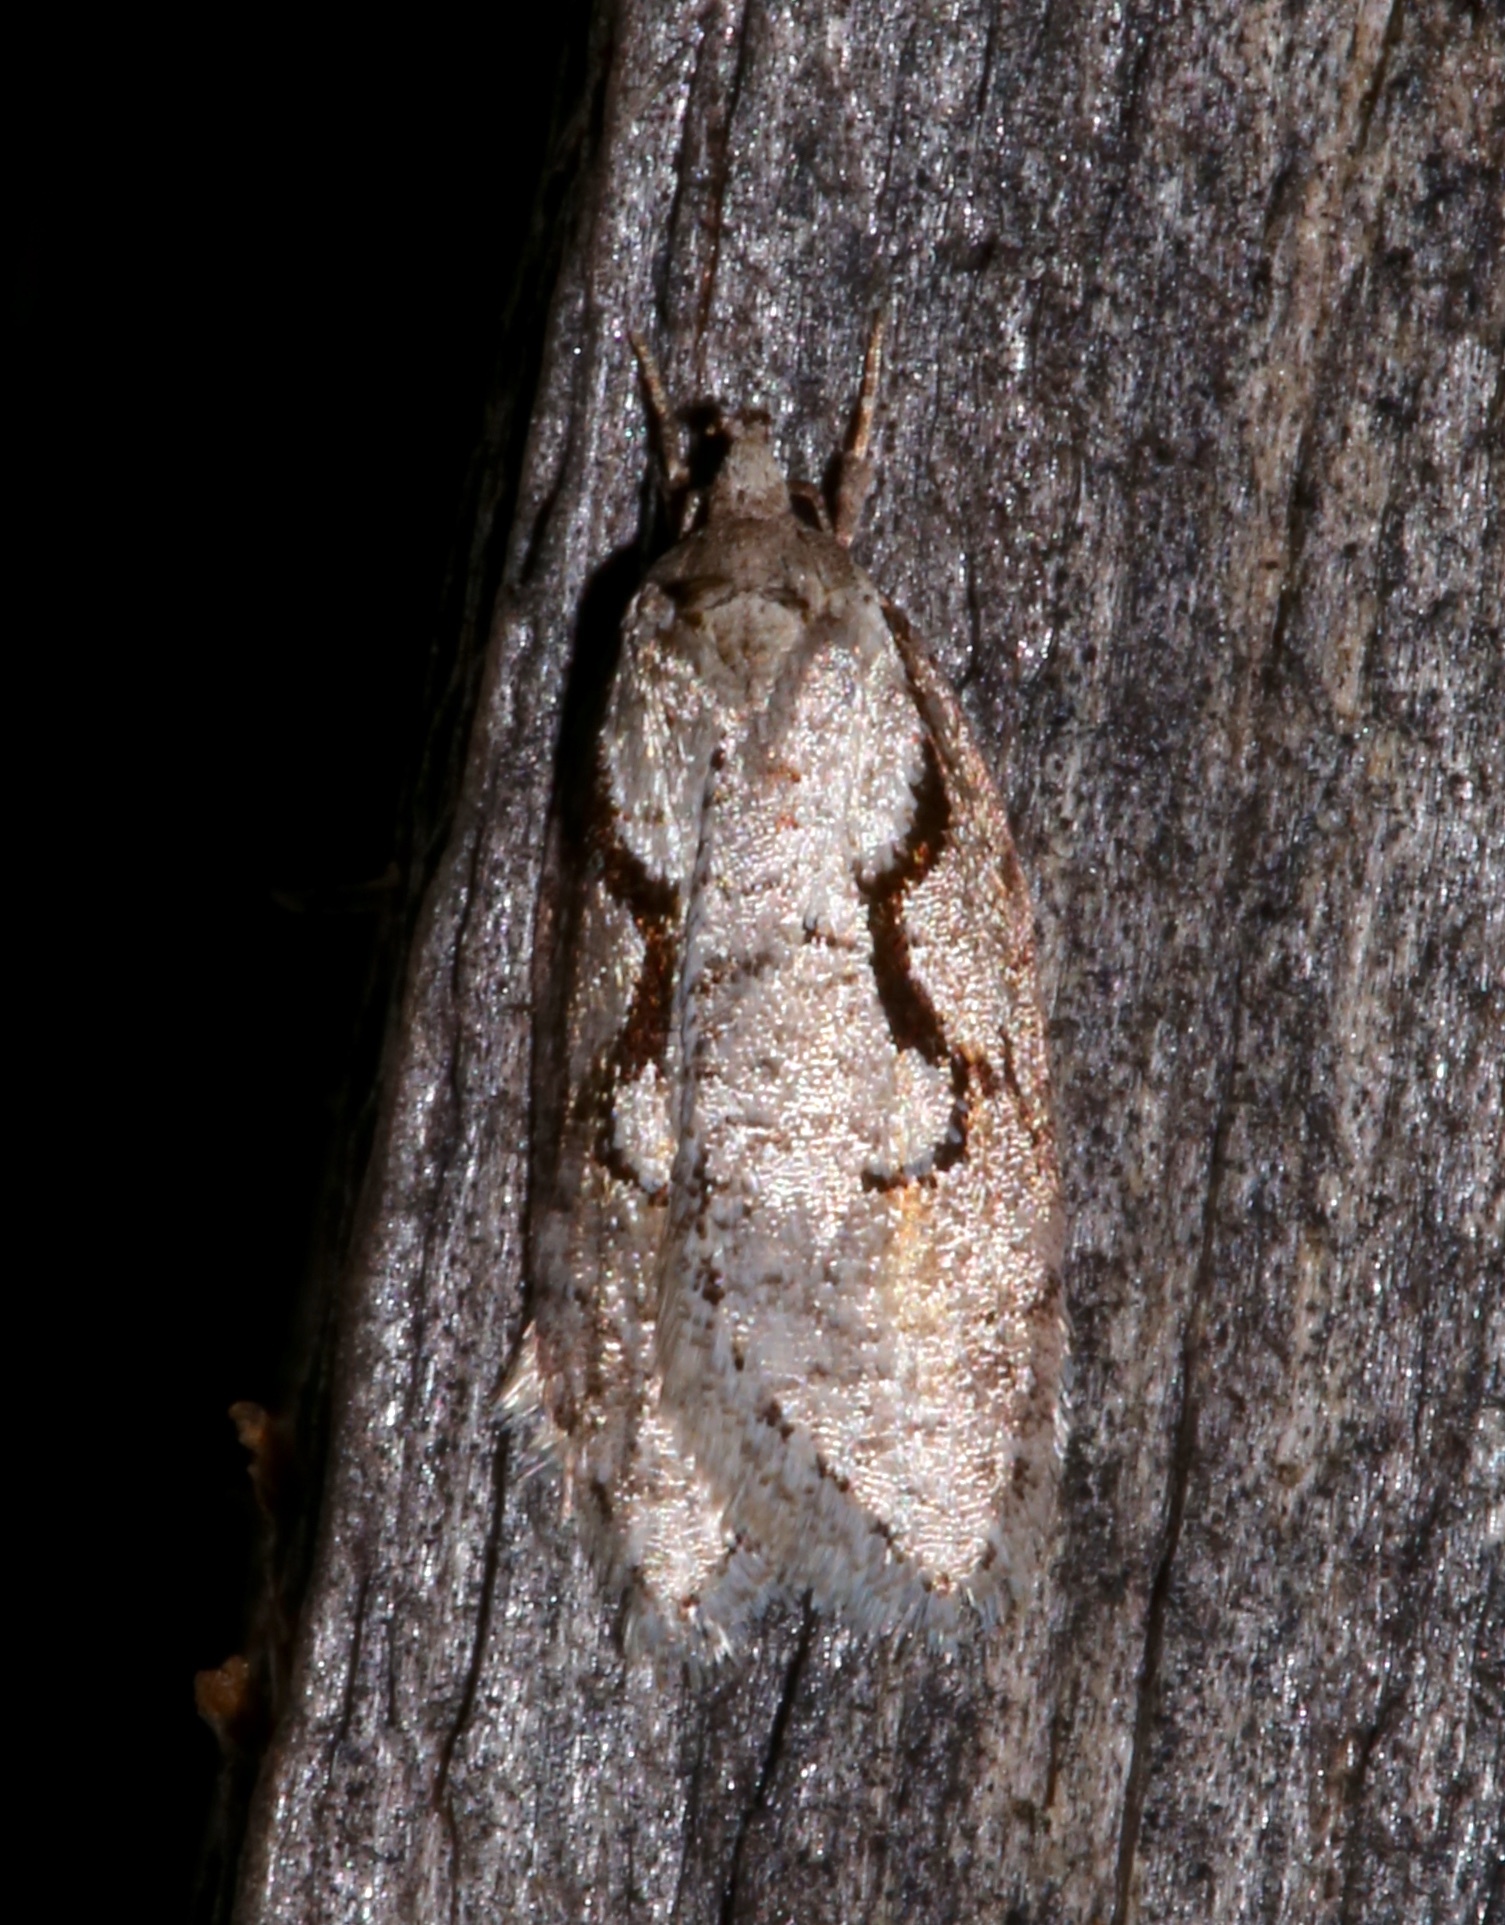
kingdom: Animalia
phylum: Arthropoda
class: Insecta
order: Lepidoptera
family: Depressariidae
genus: Semioscopis
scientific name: Semioscopis packardella
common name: Packard's concealer moth
